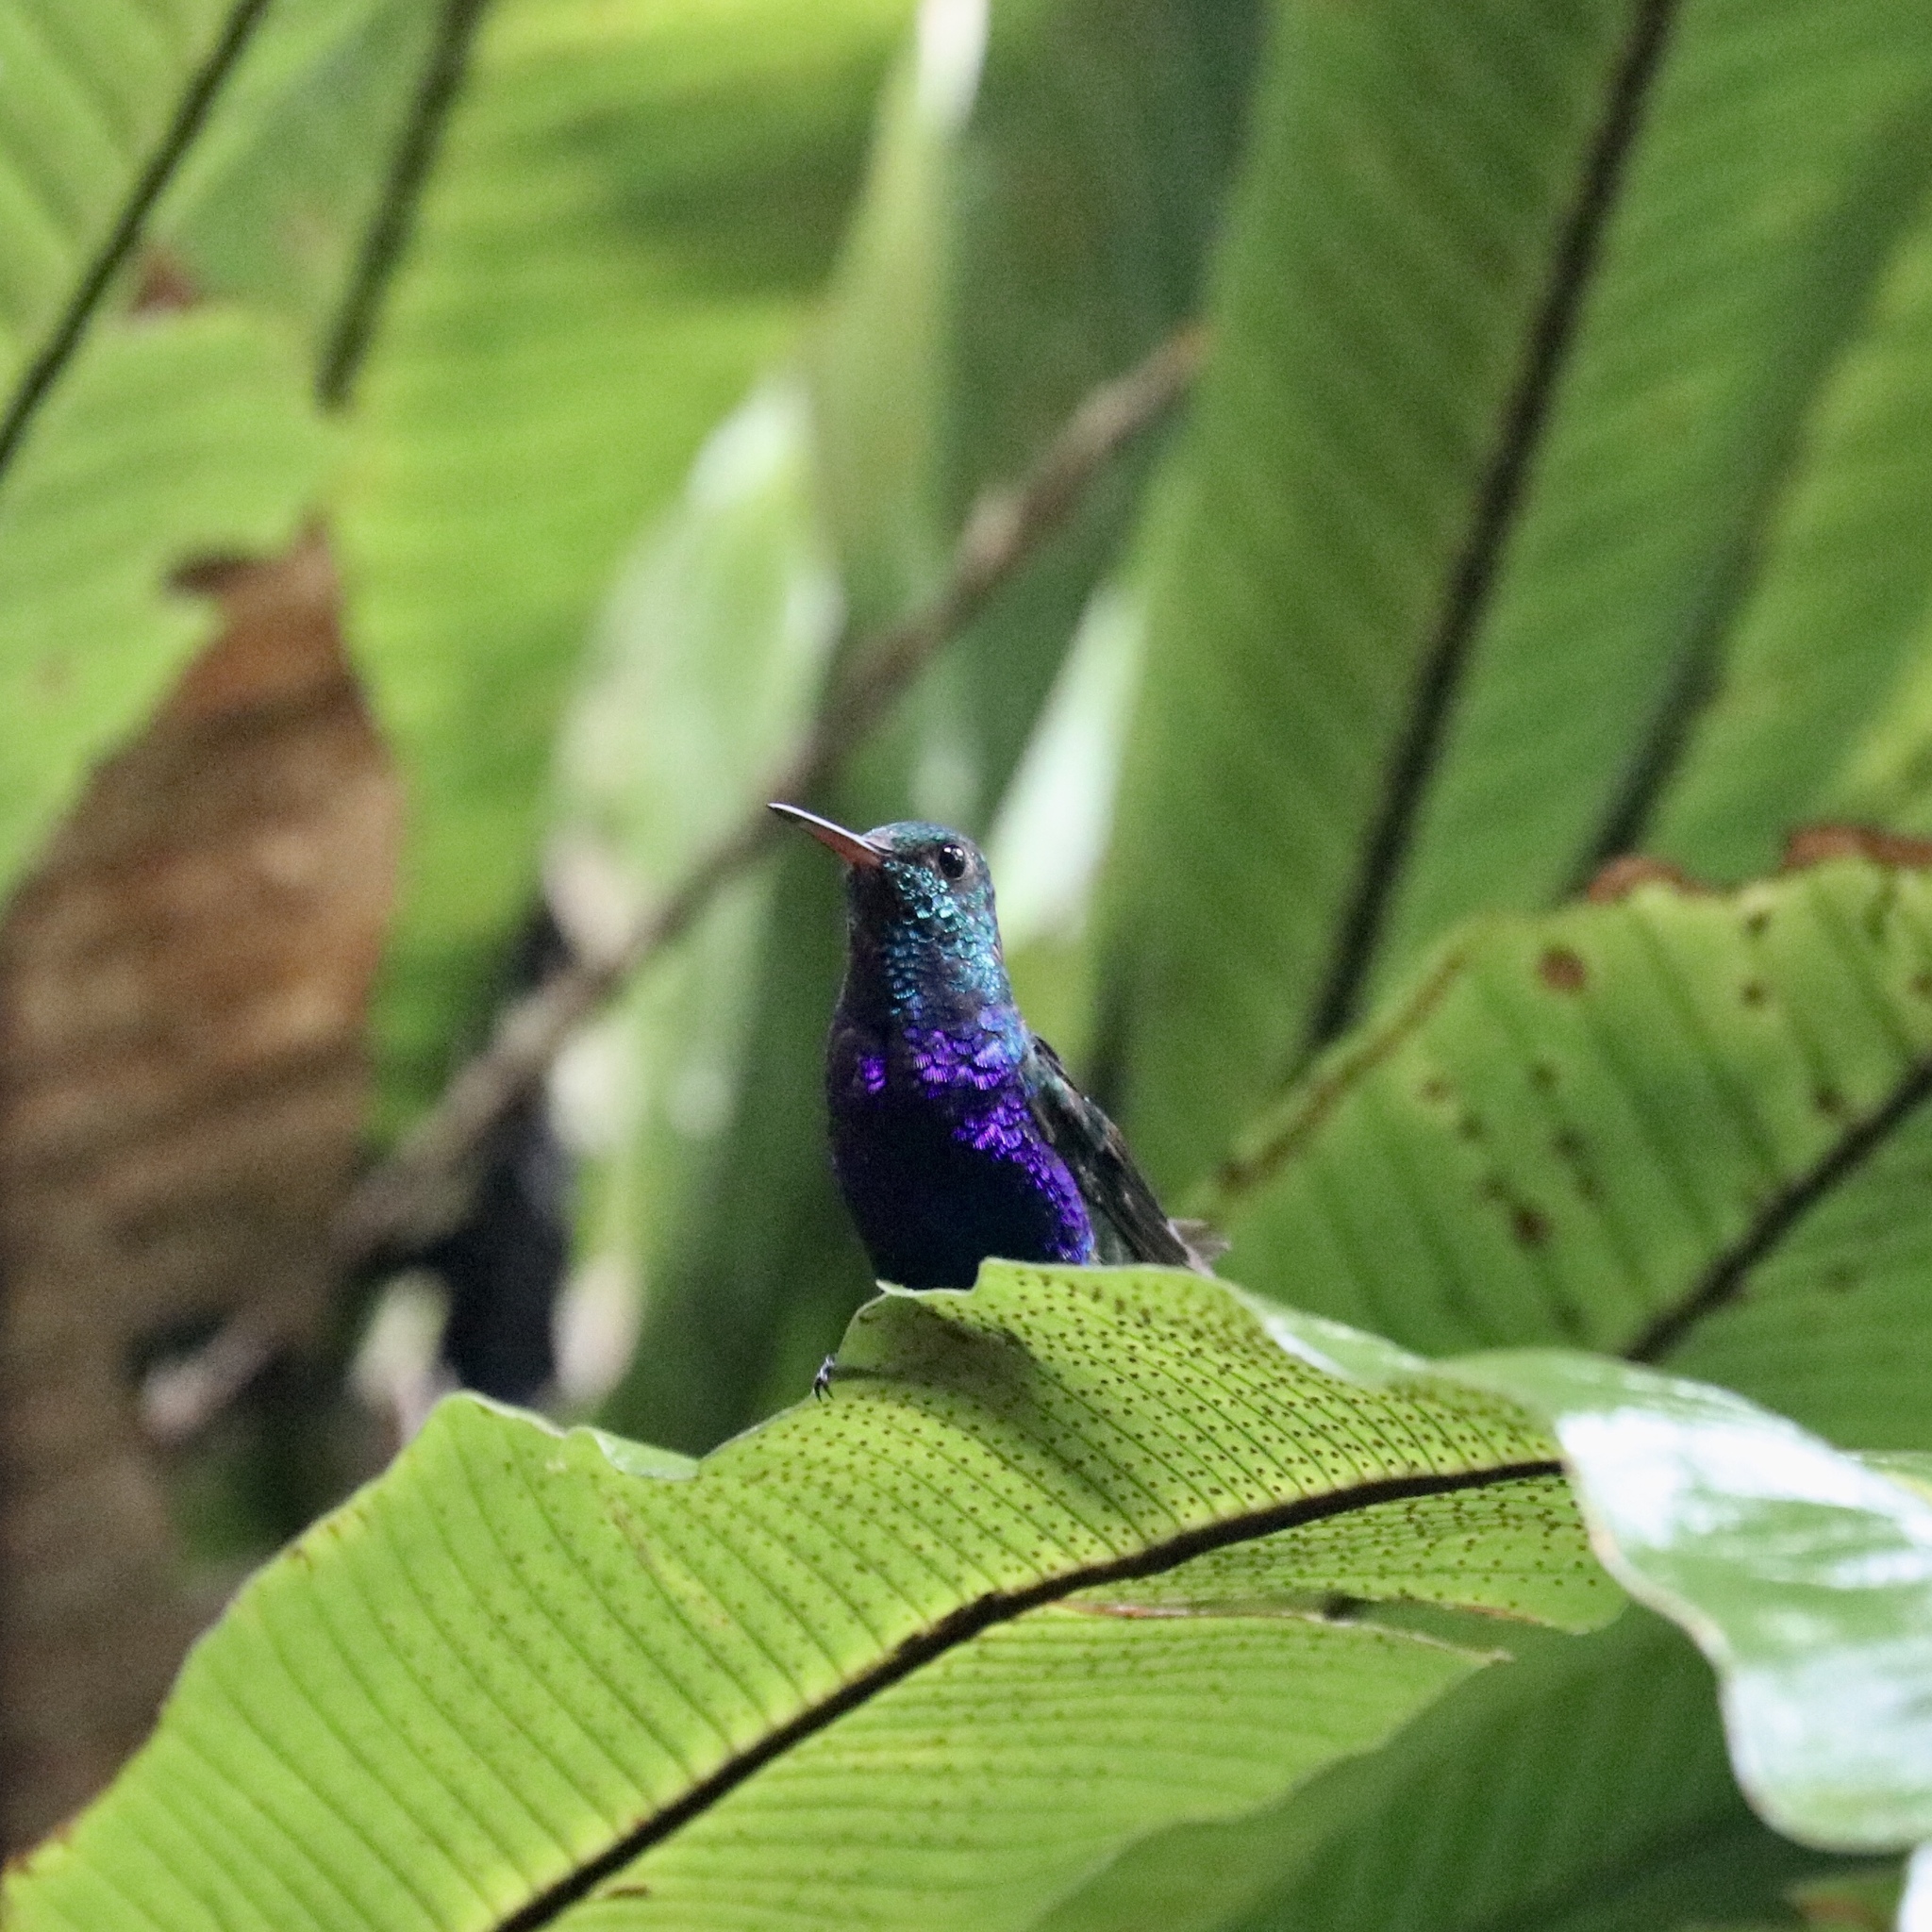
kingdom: Animalia
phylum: Chordata
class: Aves
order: Apodiformes
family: Trochilidae
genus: Chlorestes
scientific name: Chlorestes julie
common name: Violet-bellied hummingbird
